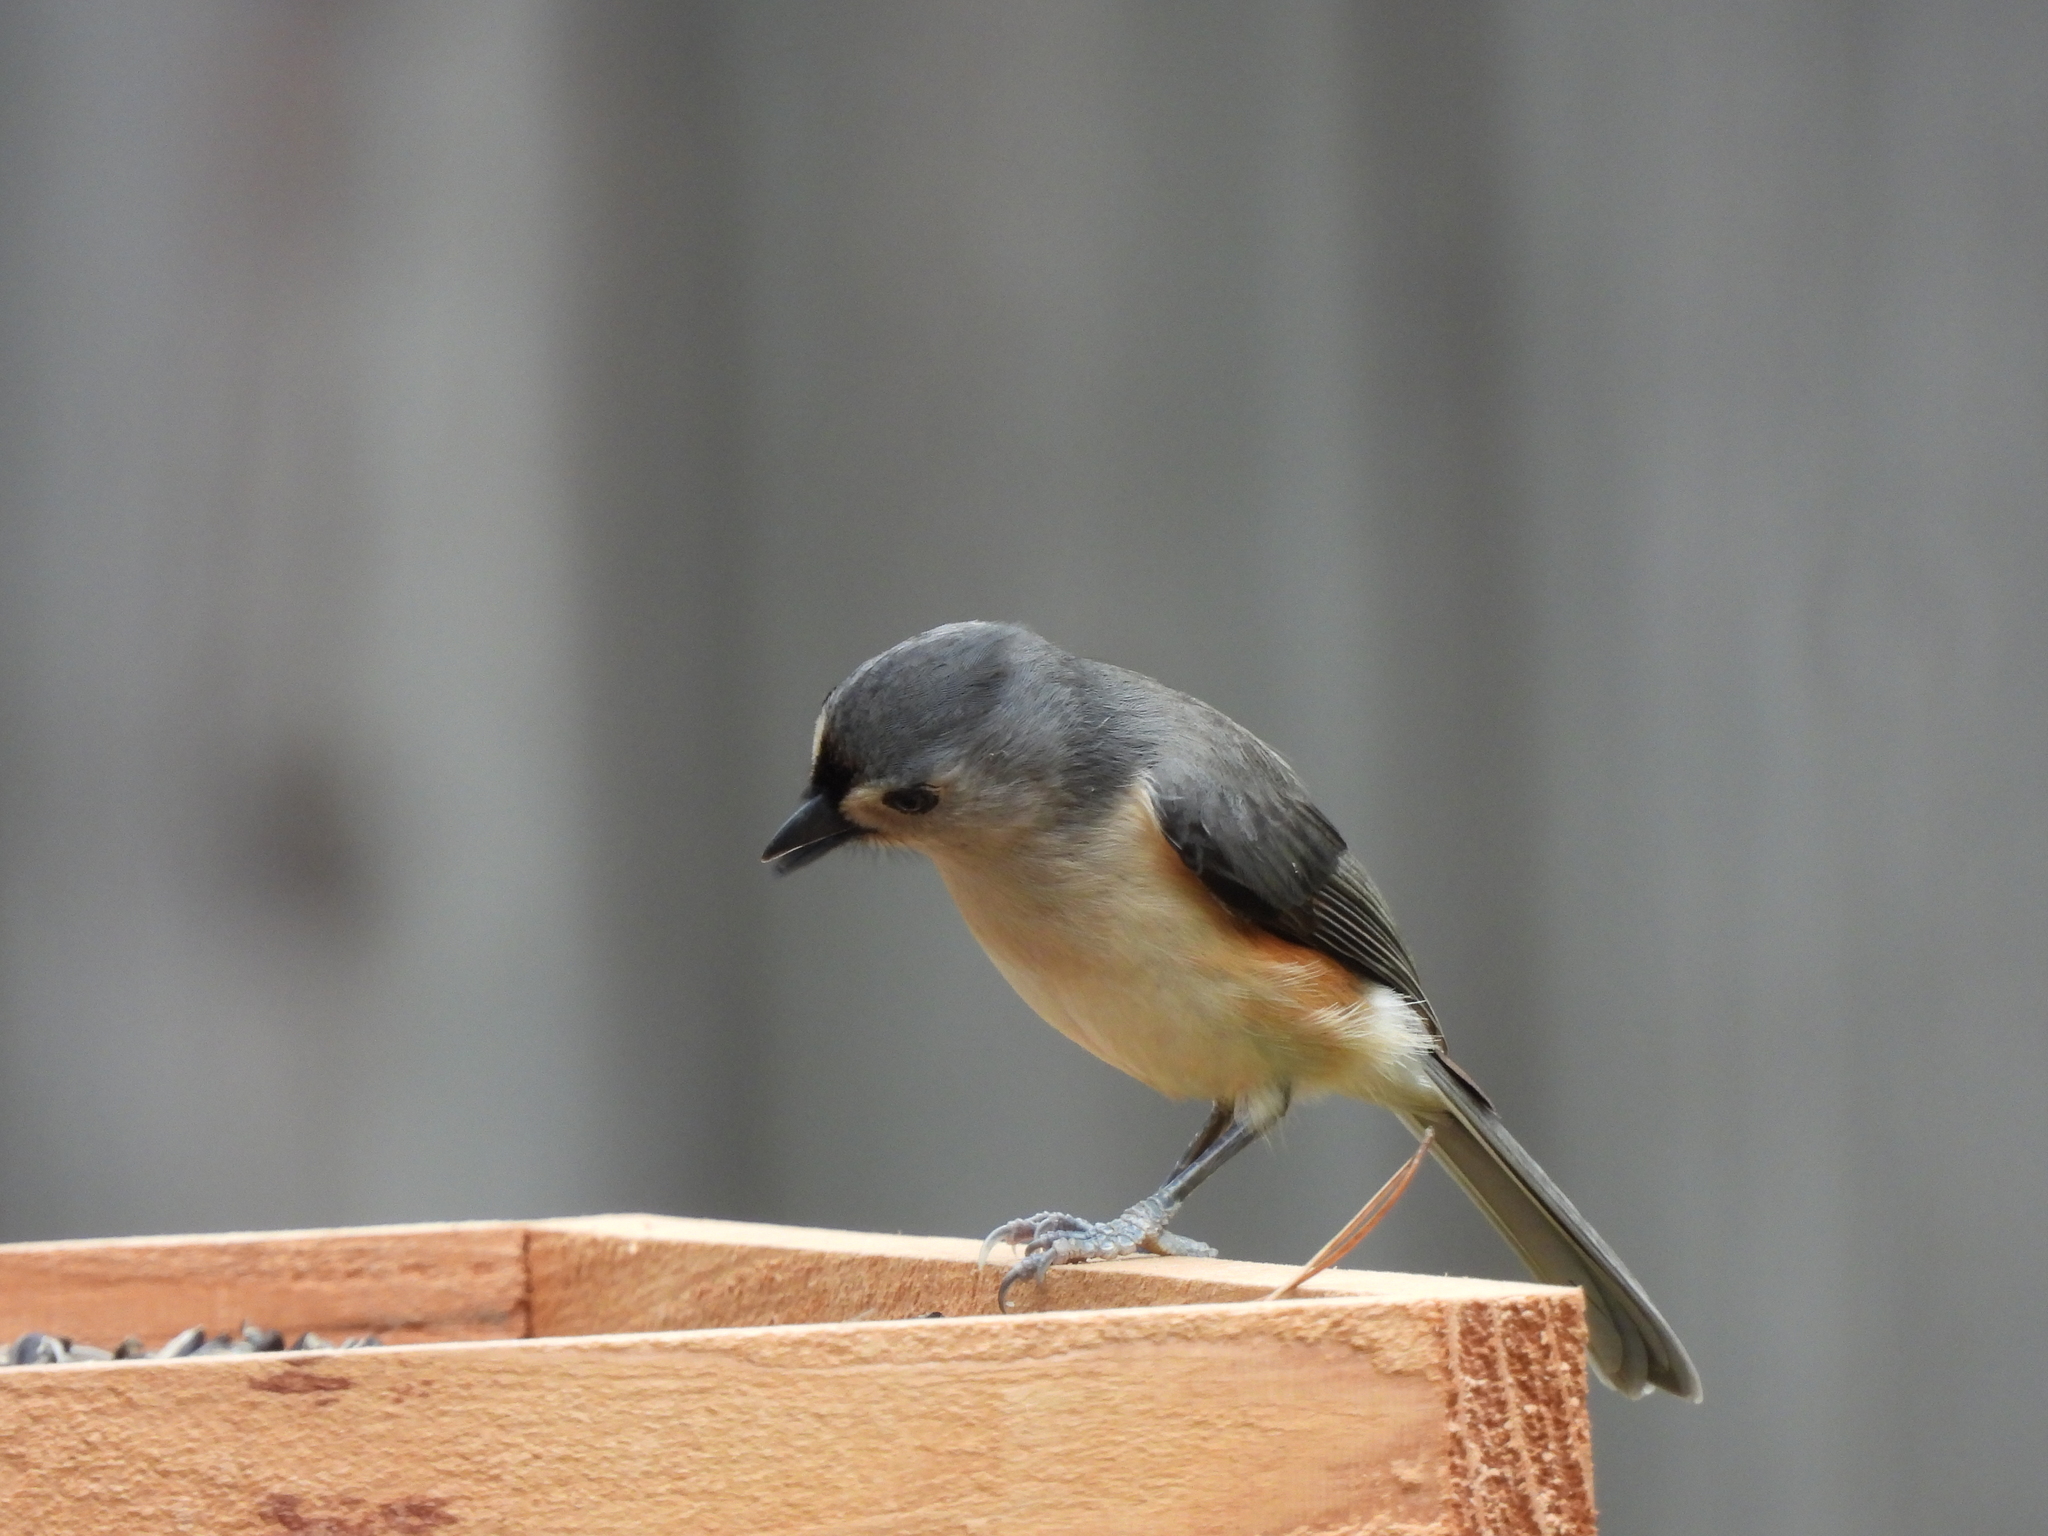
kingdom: Animalia
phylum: Chordata
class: Aves
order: Passeriformes
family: Paridae
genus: Baeolophus
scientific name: Baeolophus bicolor
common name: Tufted titmouse
